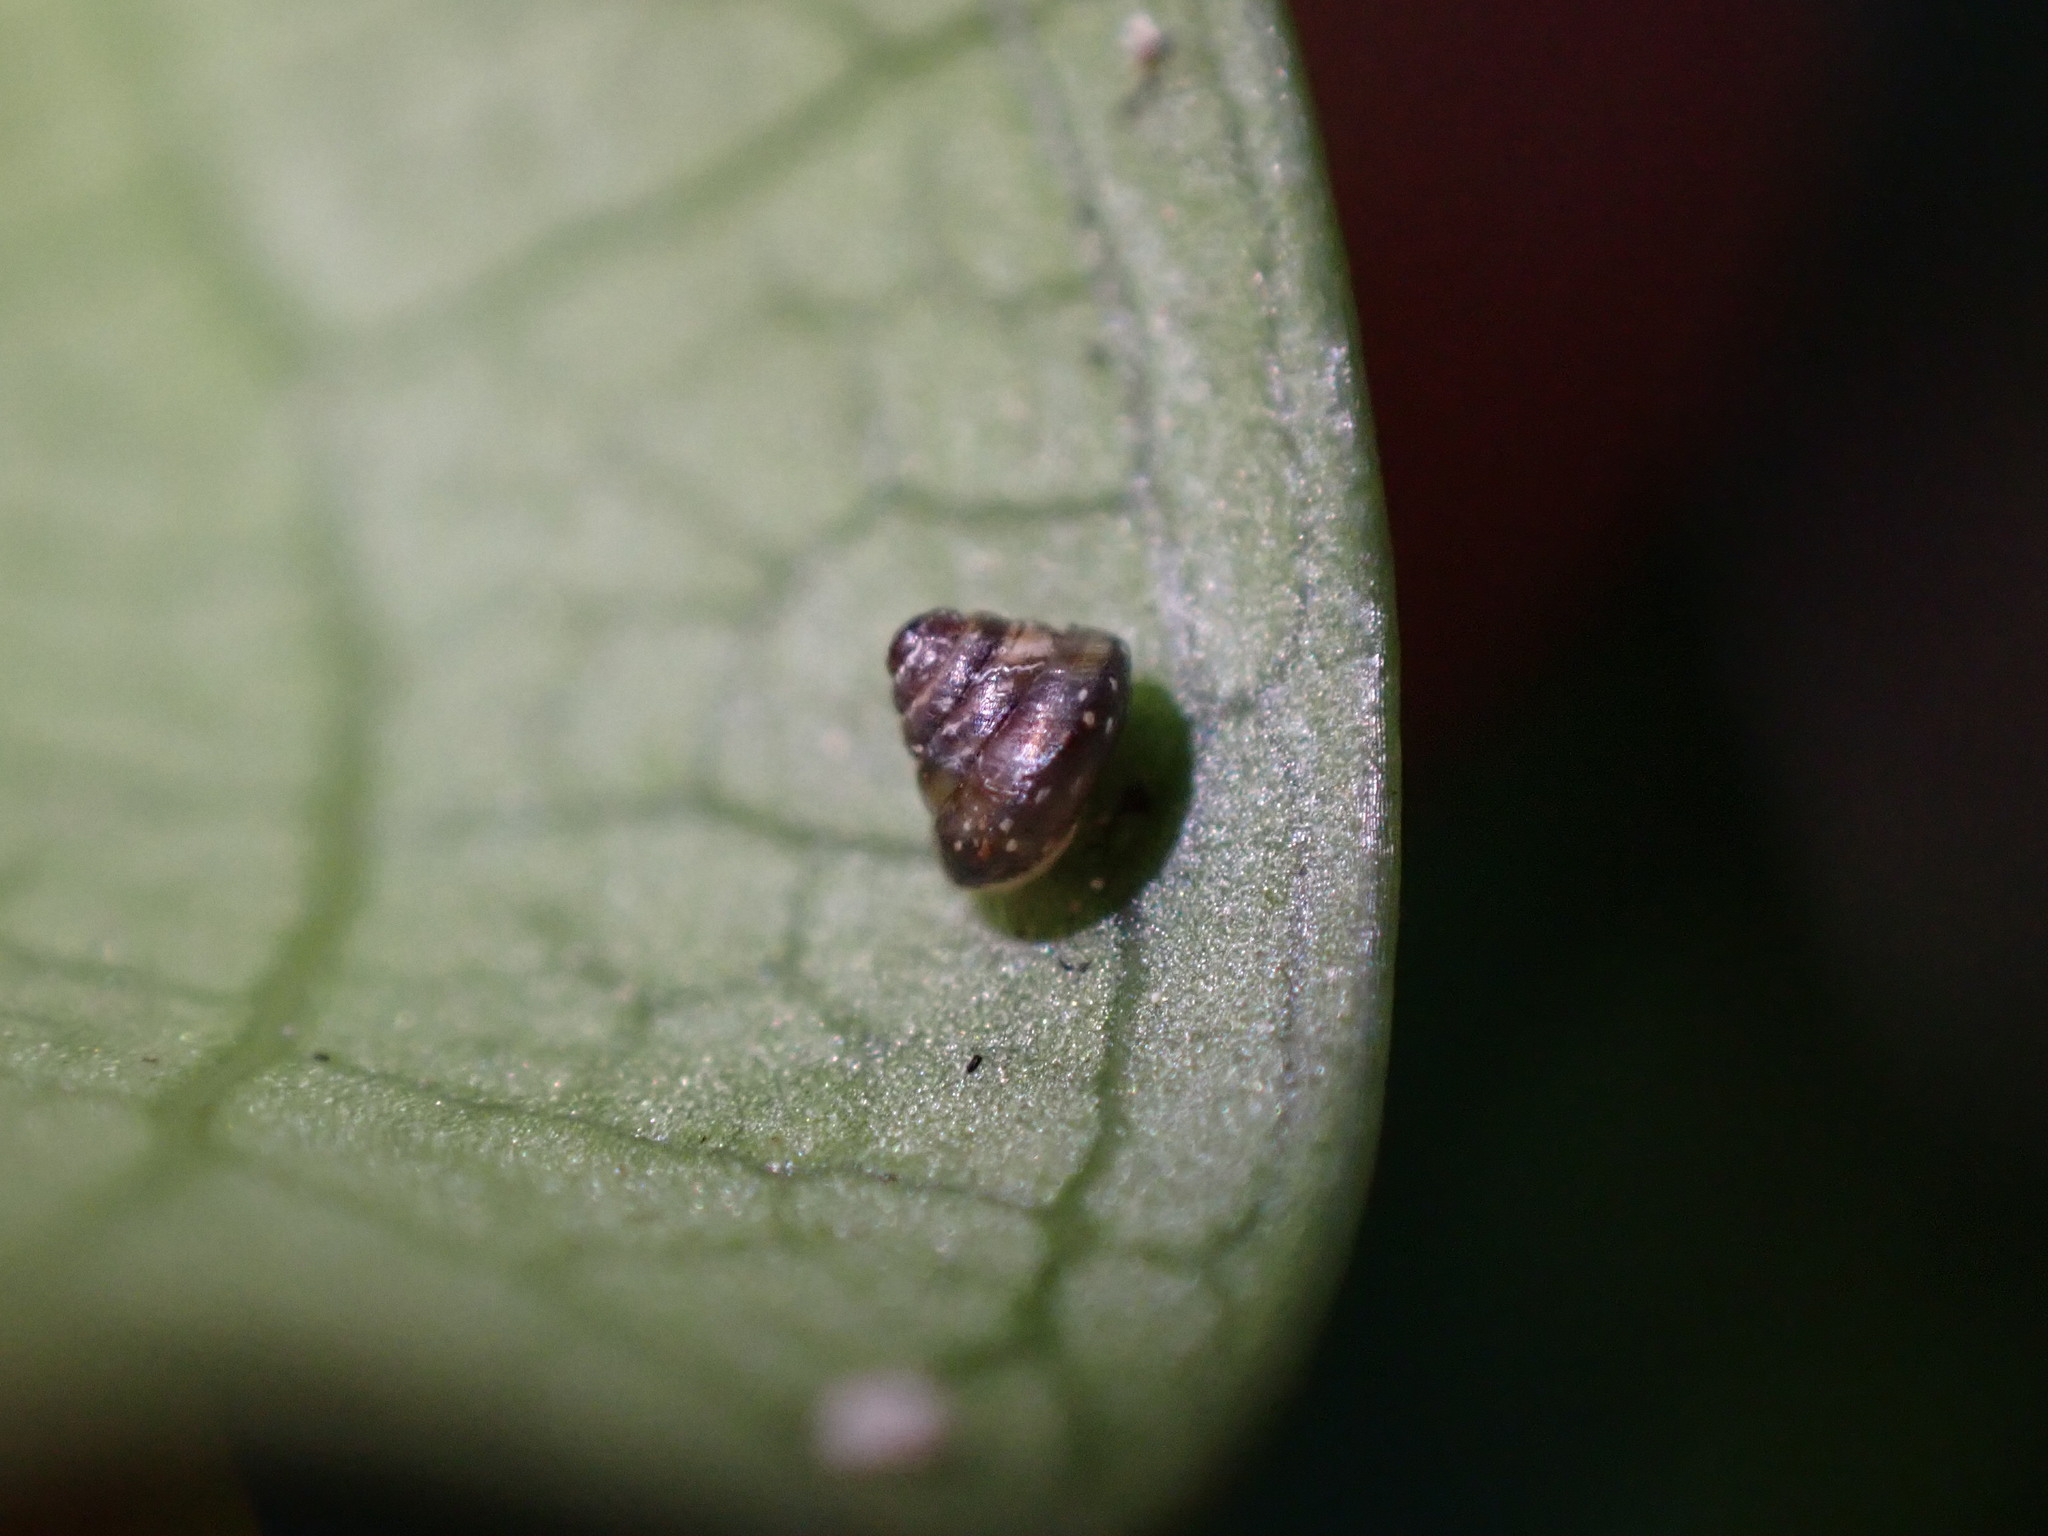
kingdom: Animalia
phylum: Mollusca
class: Gastropoda
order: Stylommatophora
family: Punctidae
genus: Phrixgnathus
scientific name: Phrixgnathus erigone
